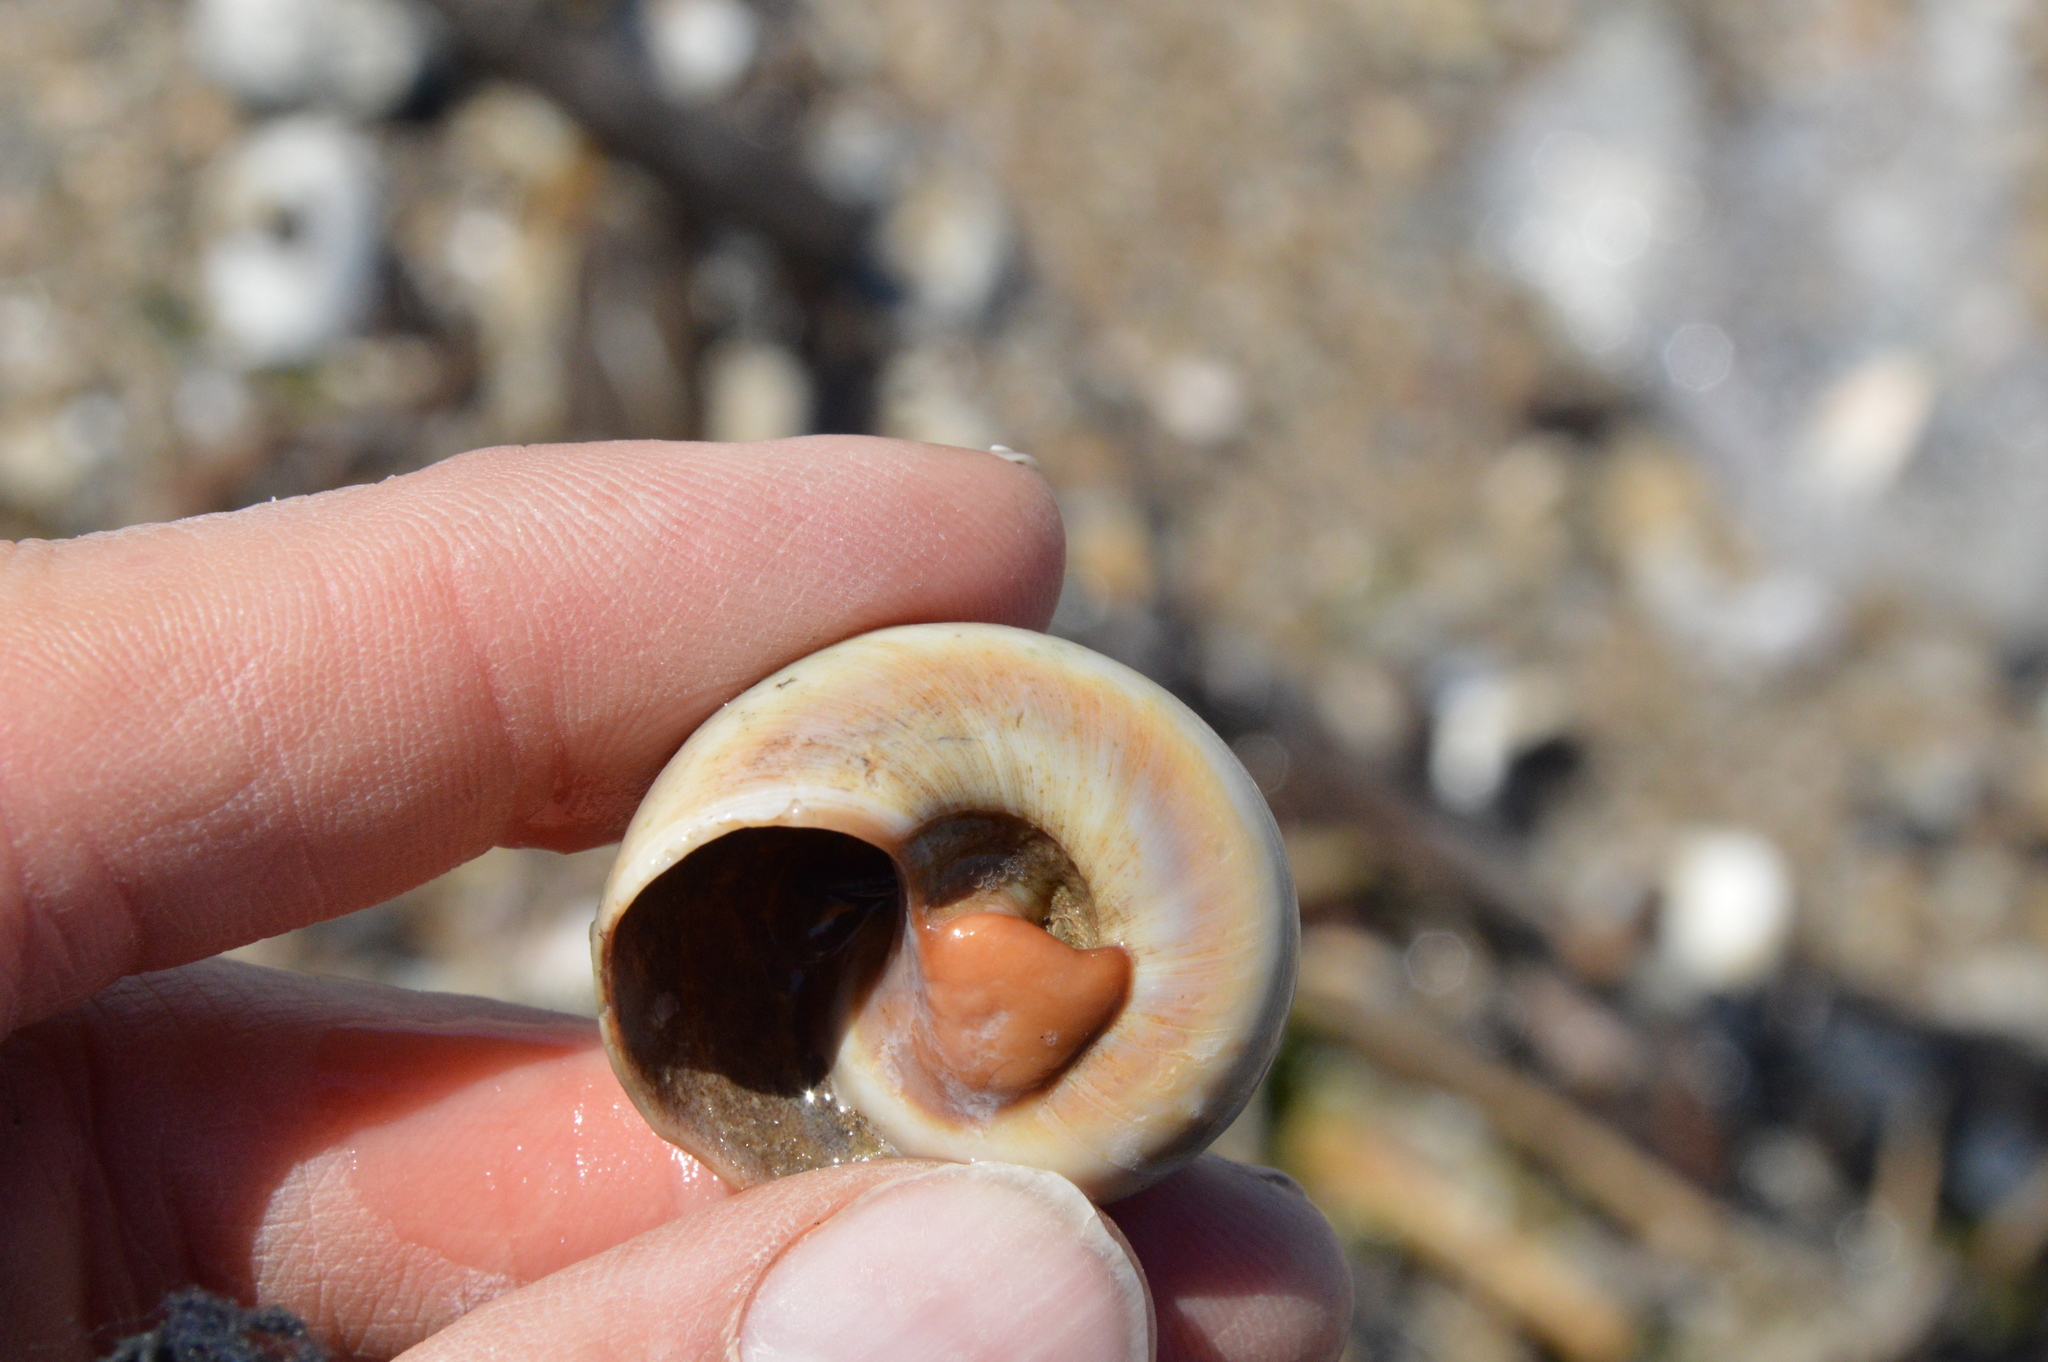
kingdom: Animalia
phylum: Mollusca
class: Gastropoda
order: Littorinimorpha
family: Naticidae
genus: Neverita
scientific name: Neverita delessertiana
